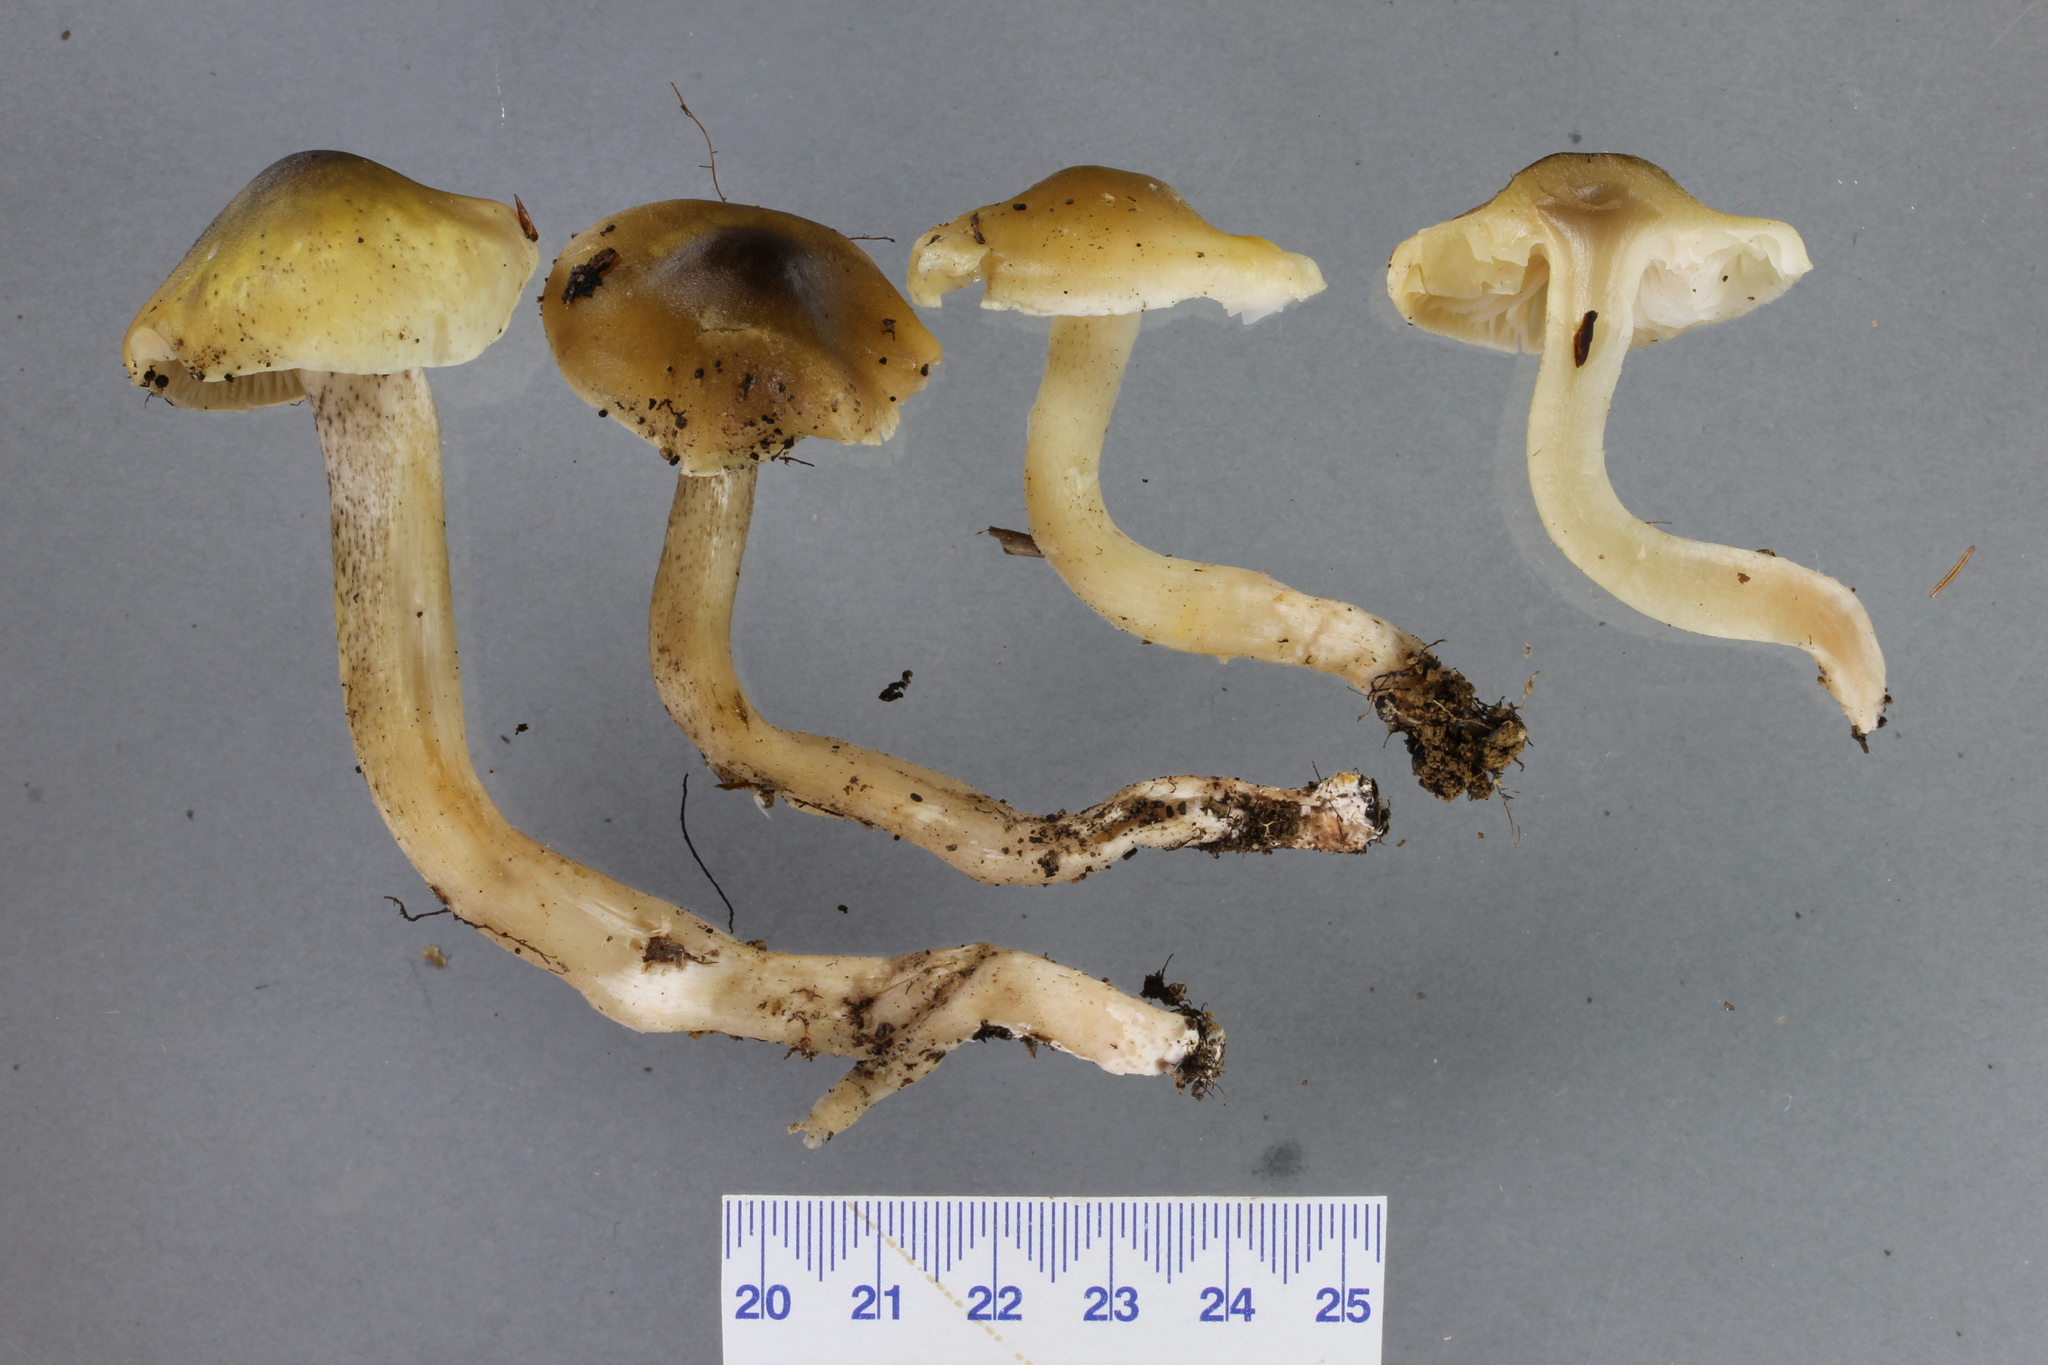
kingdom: Fungi
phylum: Basidiomycota
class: Agaricomycetes
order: Agaricales
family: Tricholomataceae
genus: Tricholoma
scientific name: Tricholoma viridiolivaceum
